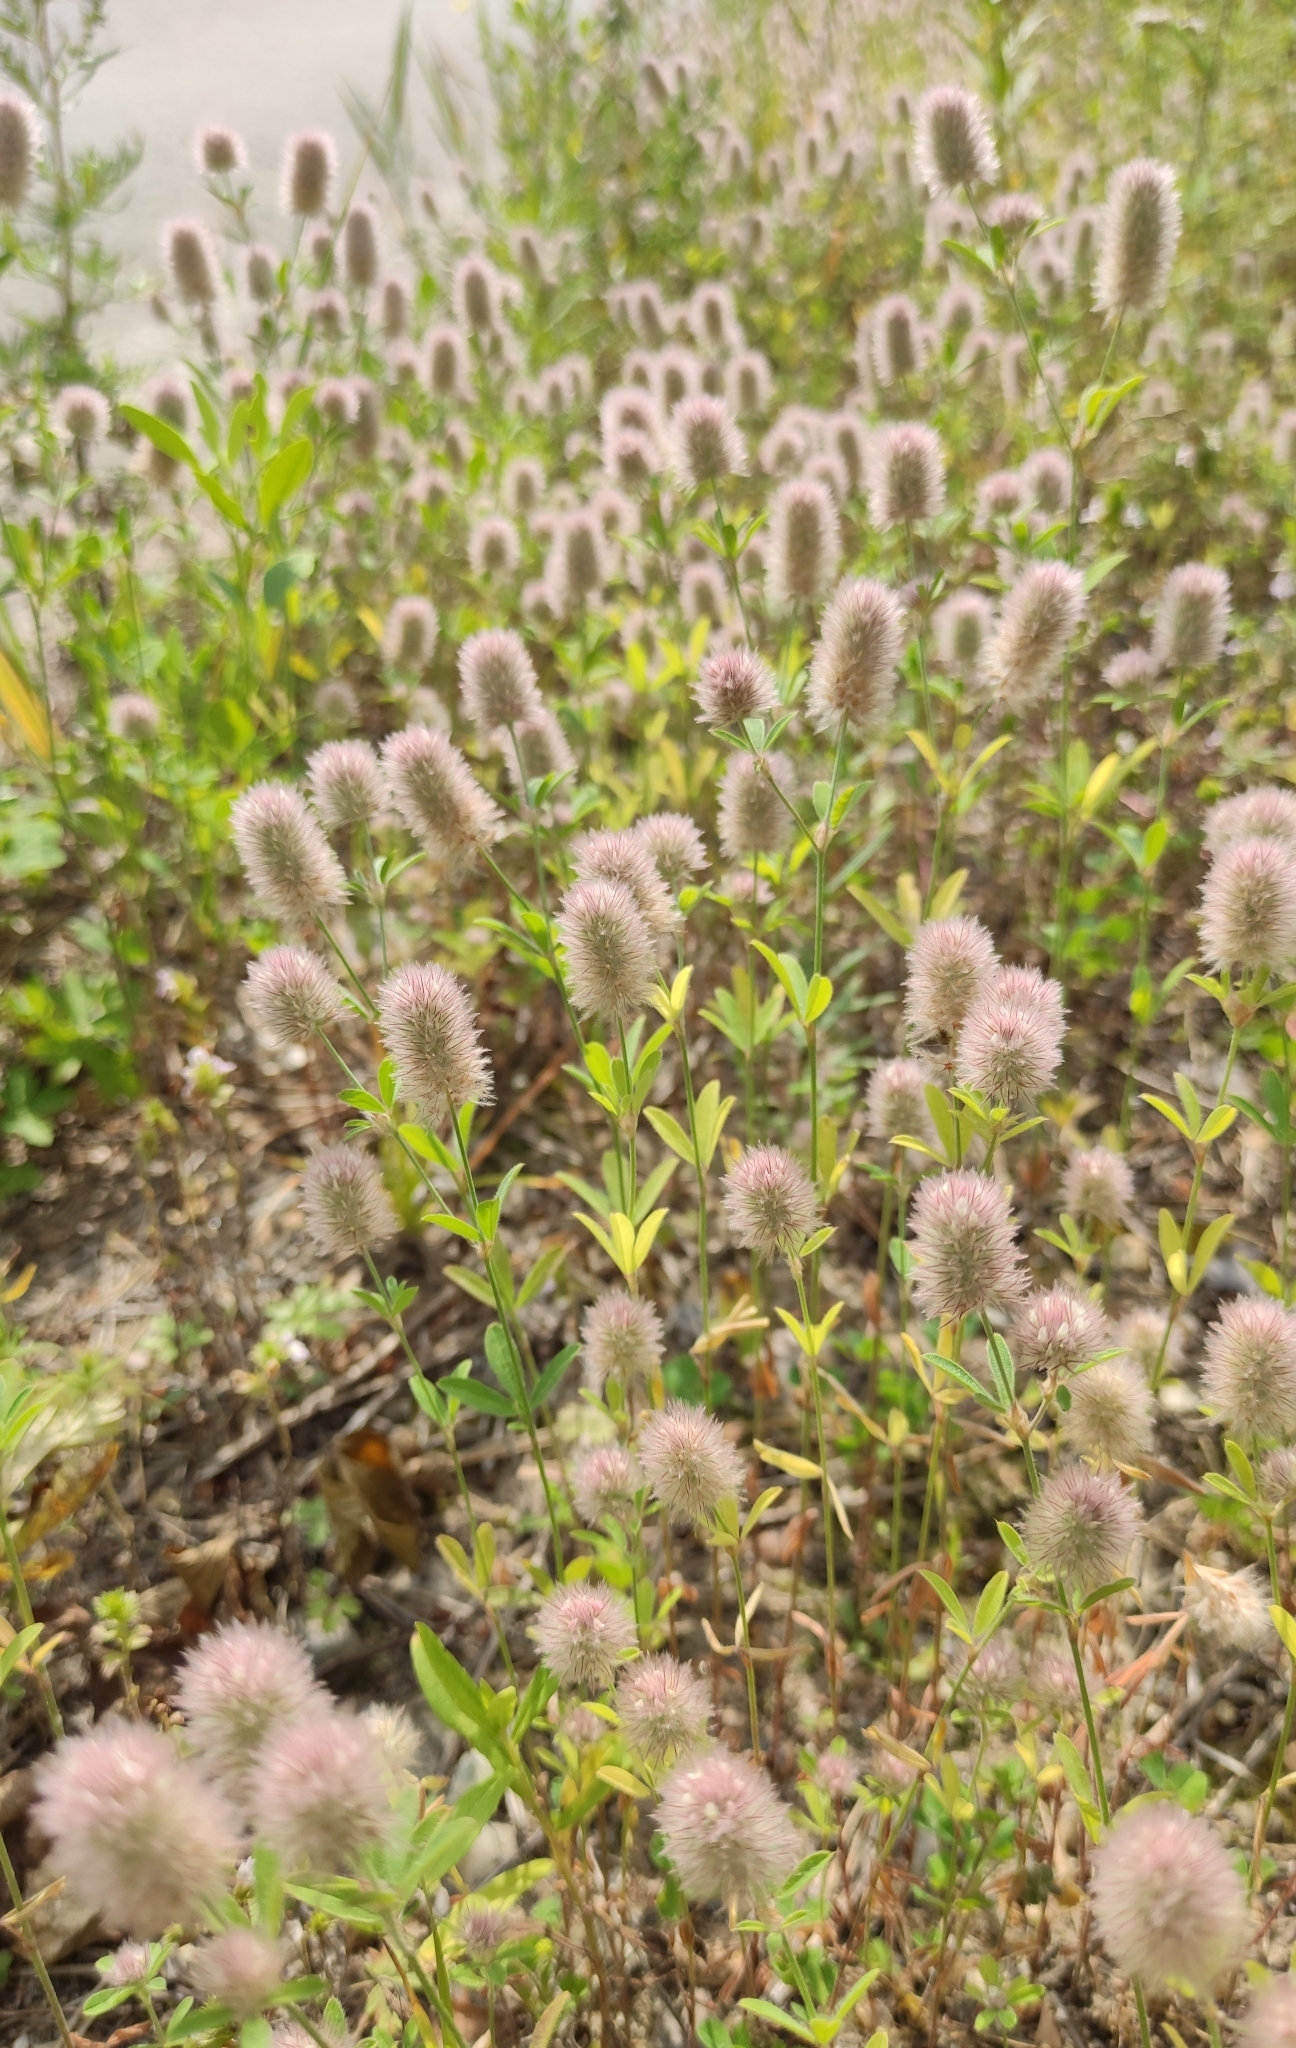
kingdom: Plantae
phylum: Tracheophyta
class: Magnoliopsida
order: Fabales
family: Fabaceae
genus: Trifolium
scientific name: Trifolium arvense
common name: Hare's-foot clover
